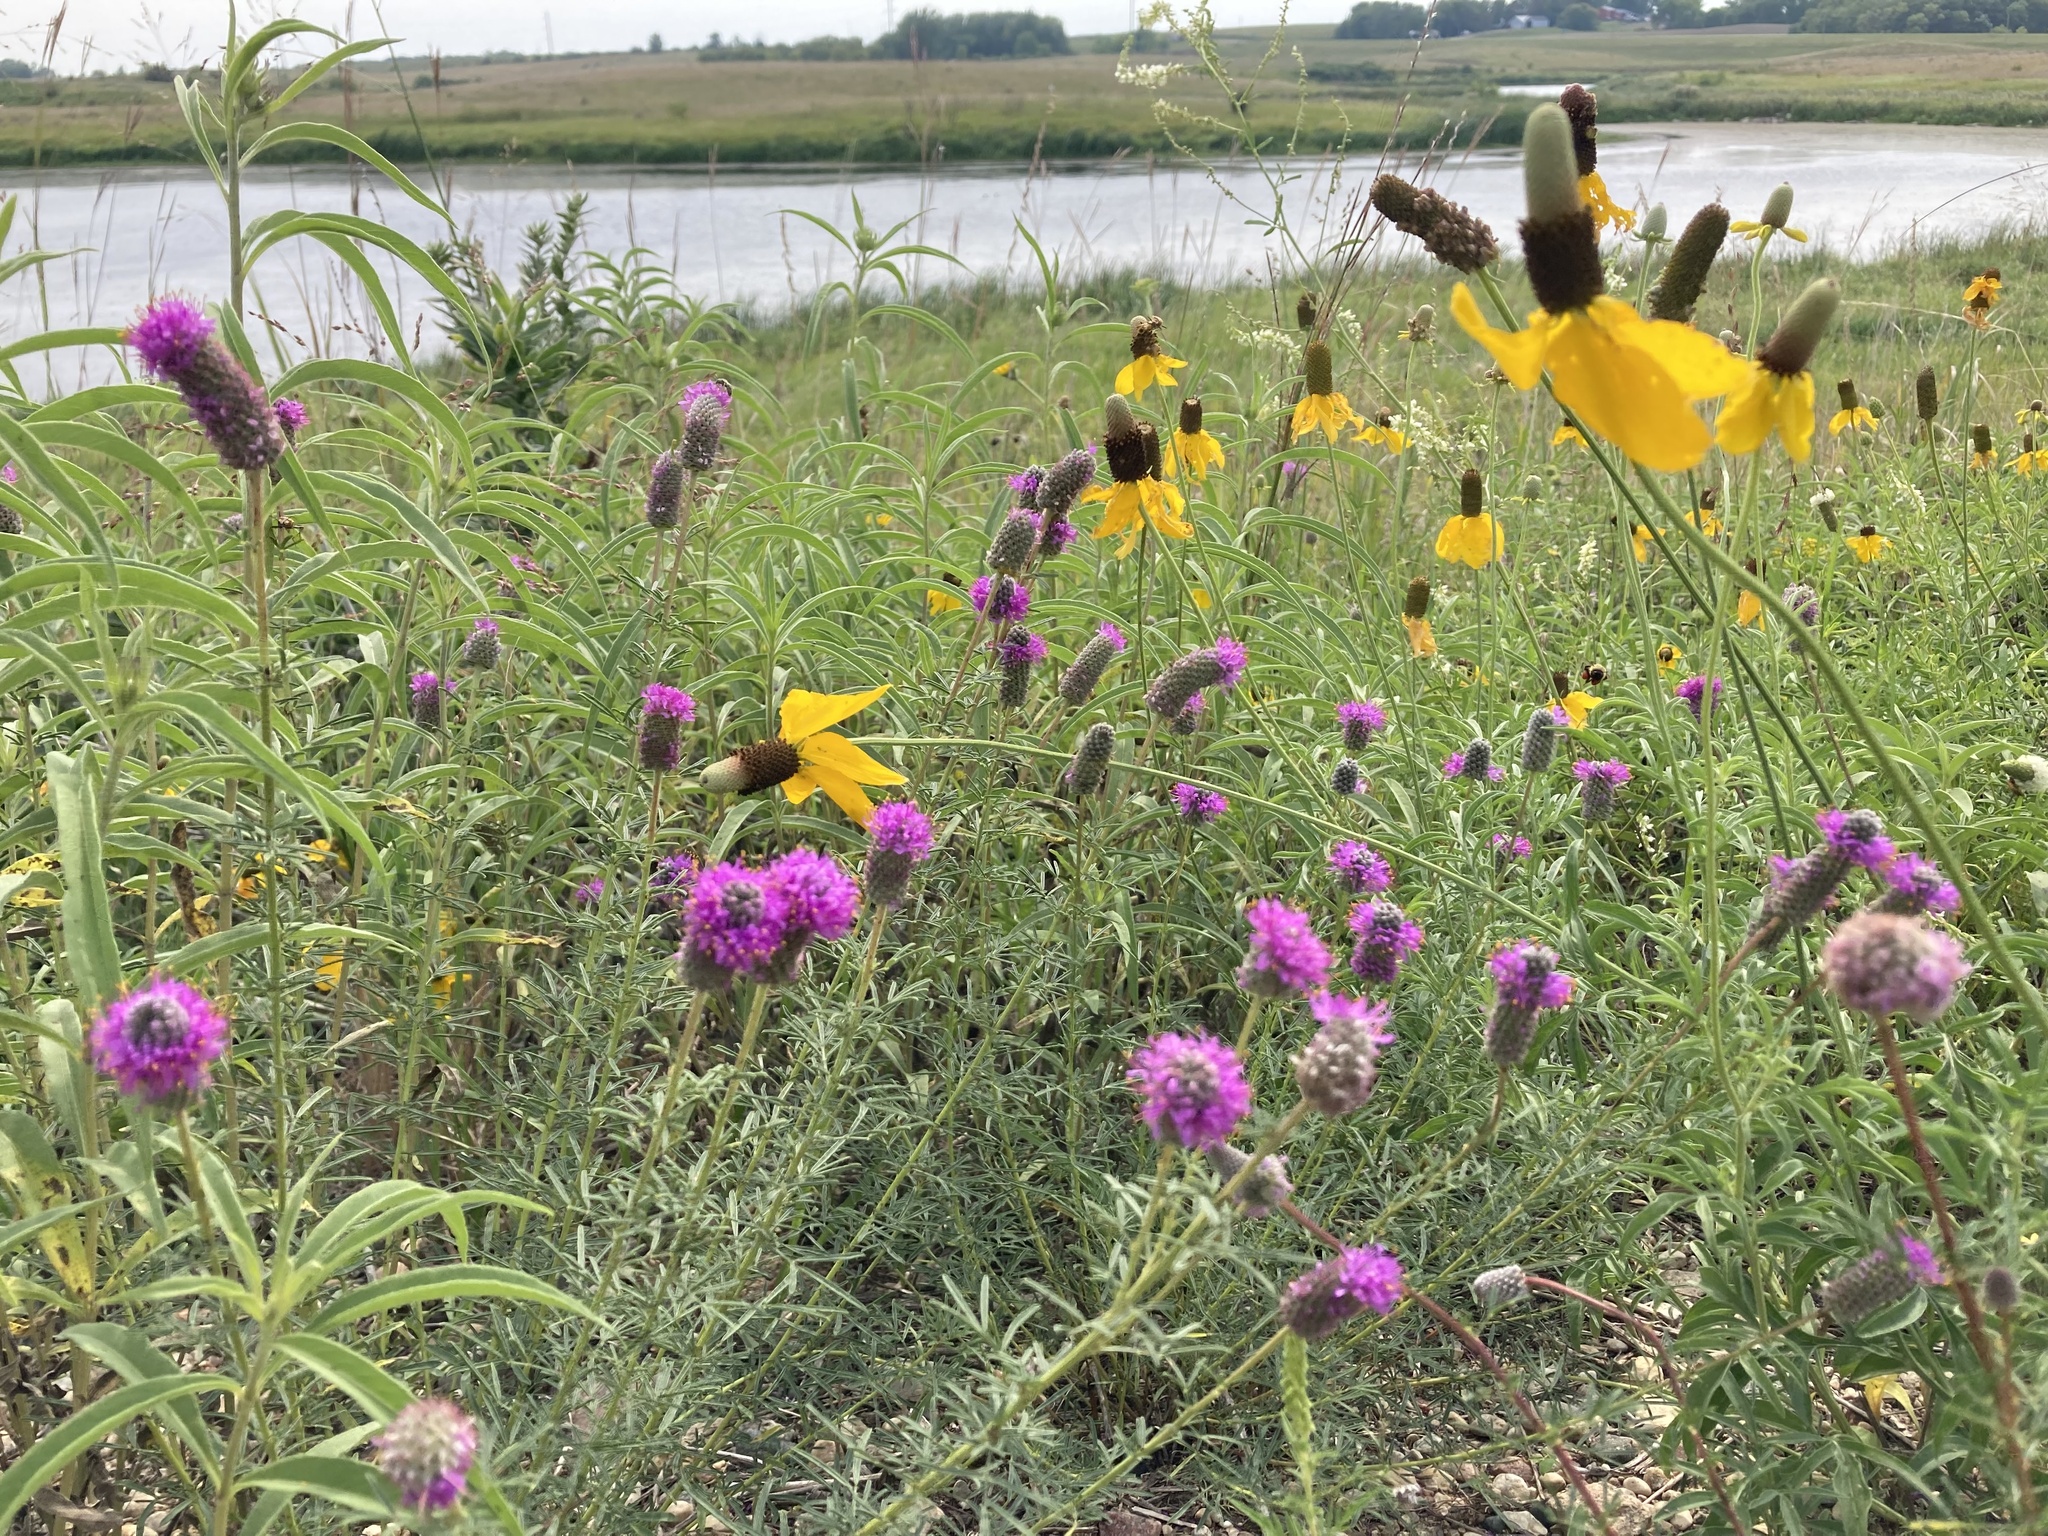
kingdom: Plantae
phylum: Tracheophyta
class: Magnoliopsida
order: Fabales
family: Fabaceae
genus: Dalea
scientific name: Dalea purpurea
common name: Purple prairie-clover
